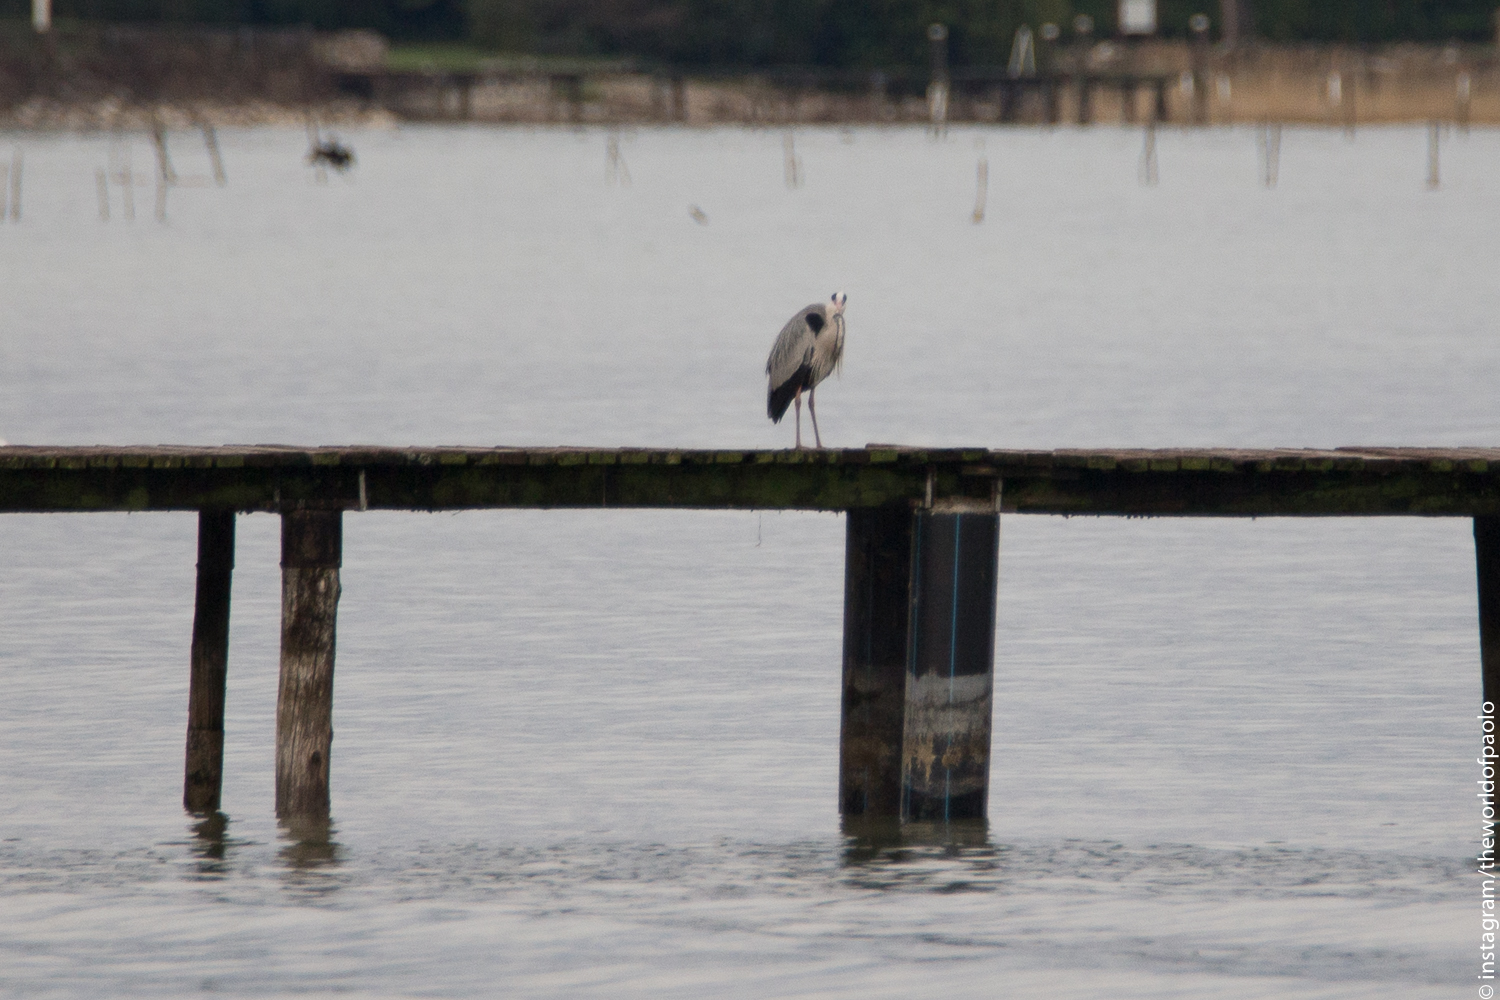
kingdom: Animalia
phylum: Chordata
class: Aves
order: Pelecaniformes
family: Ardeidae
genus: Ardea
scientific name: Ardea cinerea
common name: Grey heron
